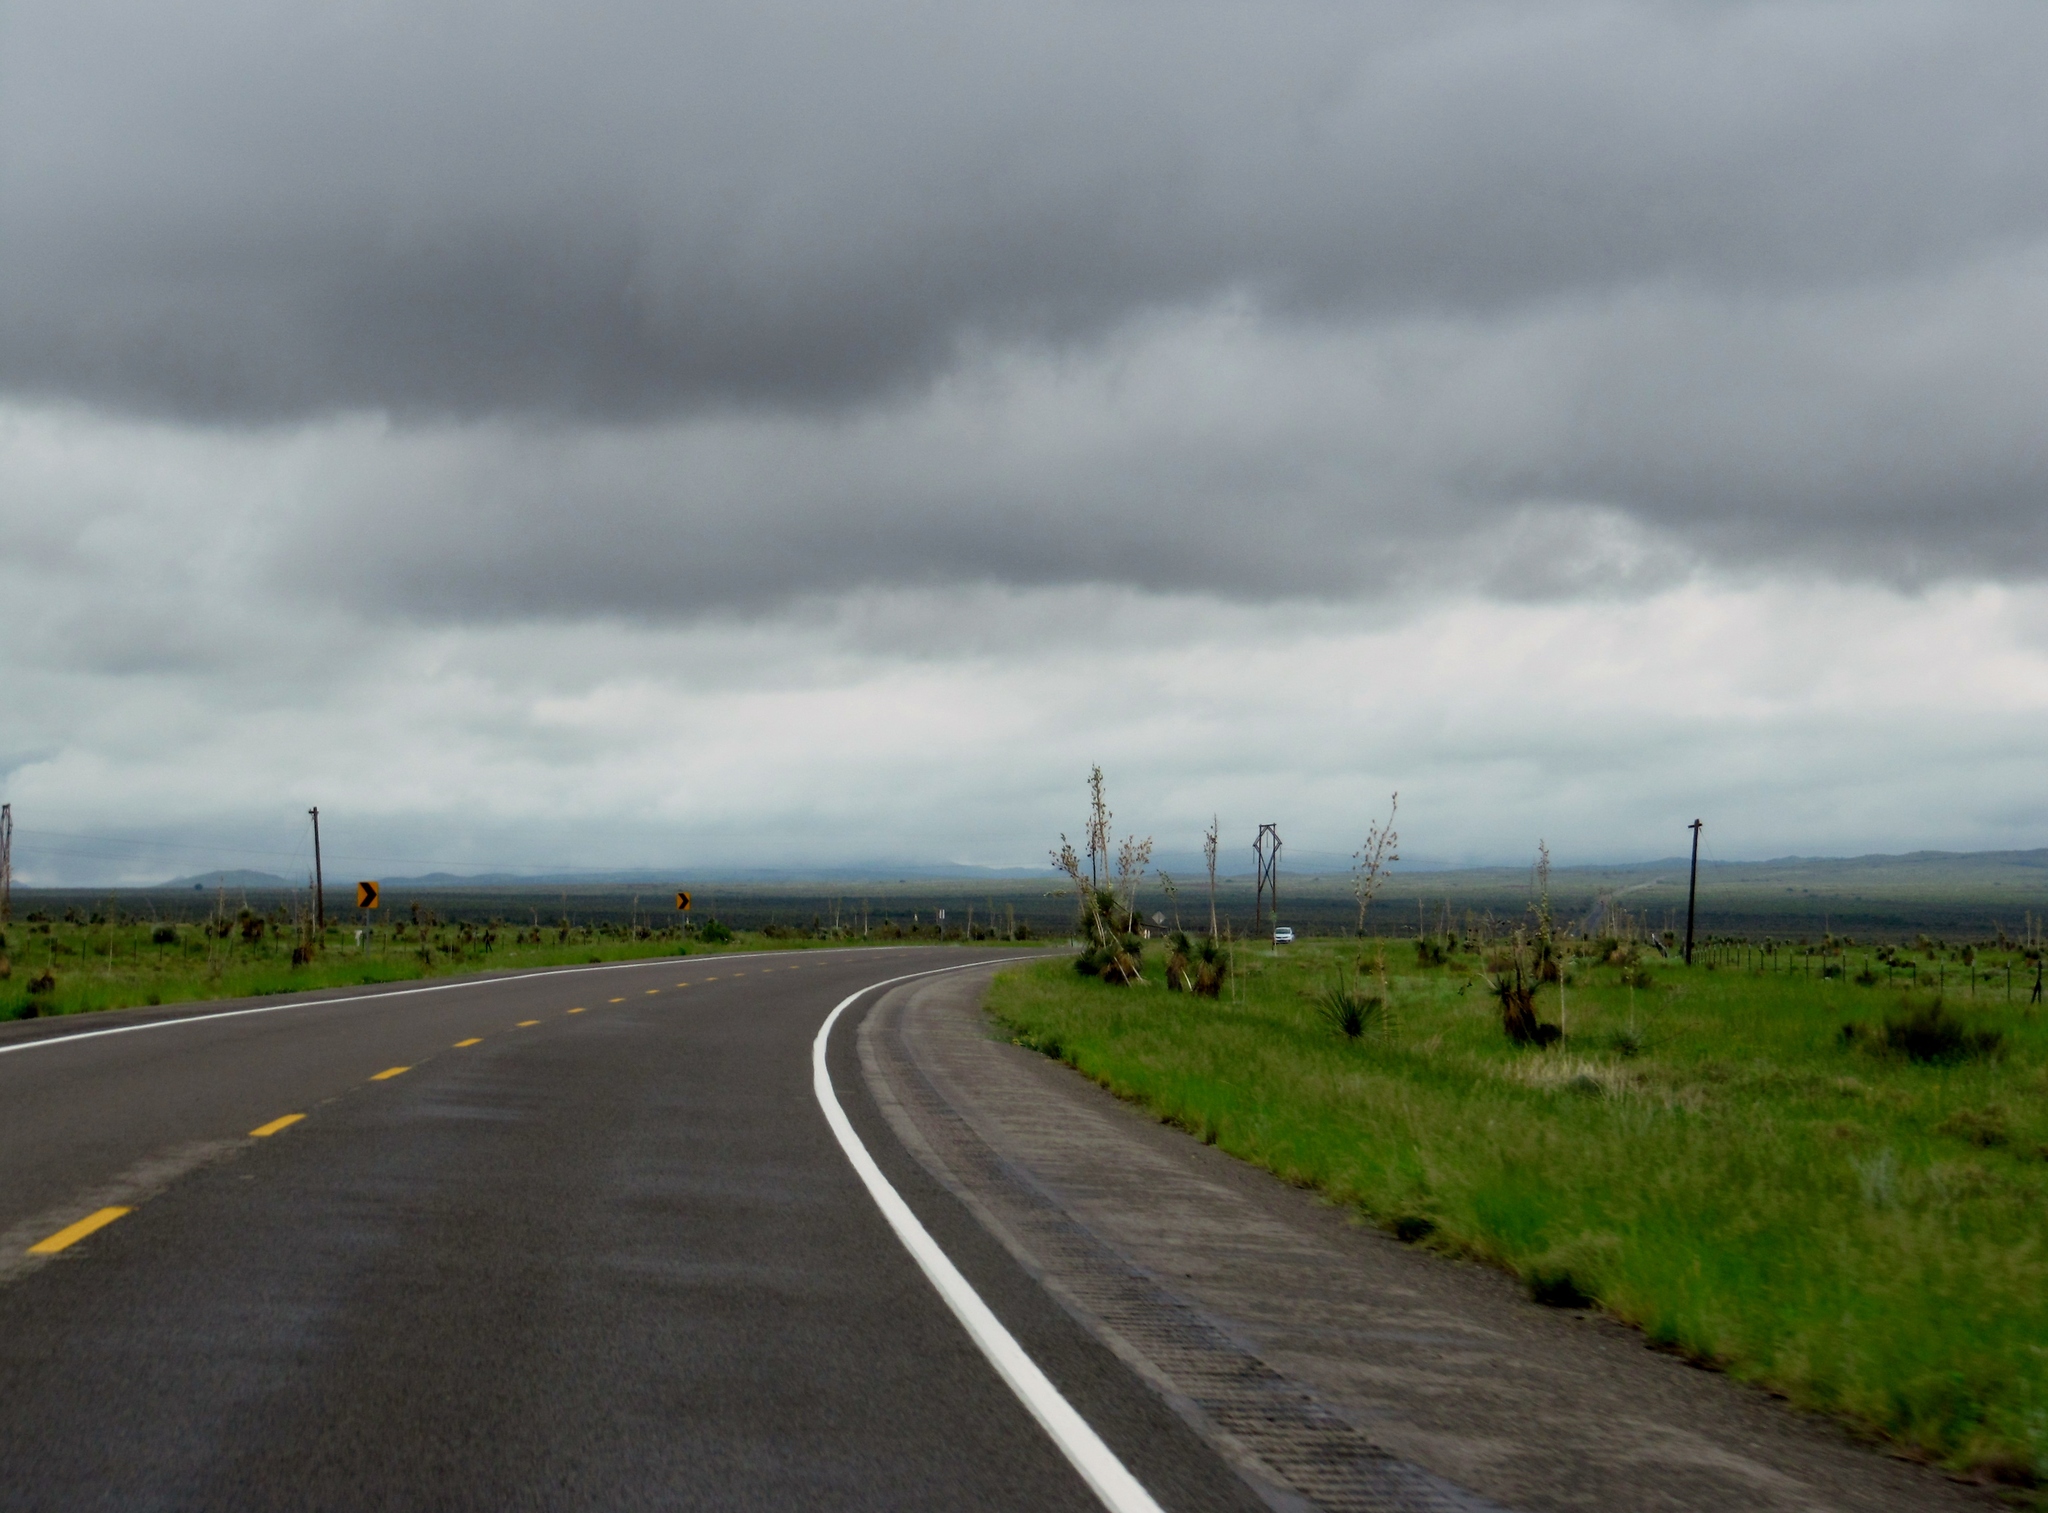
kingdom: Plantae
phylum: Tracheophyta
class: Liliopsida
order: Asparagales
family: Asparagaceae
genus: Yucca
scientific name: Yucca elata
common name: Palmella
